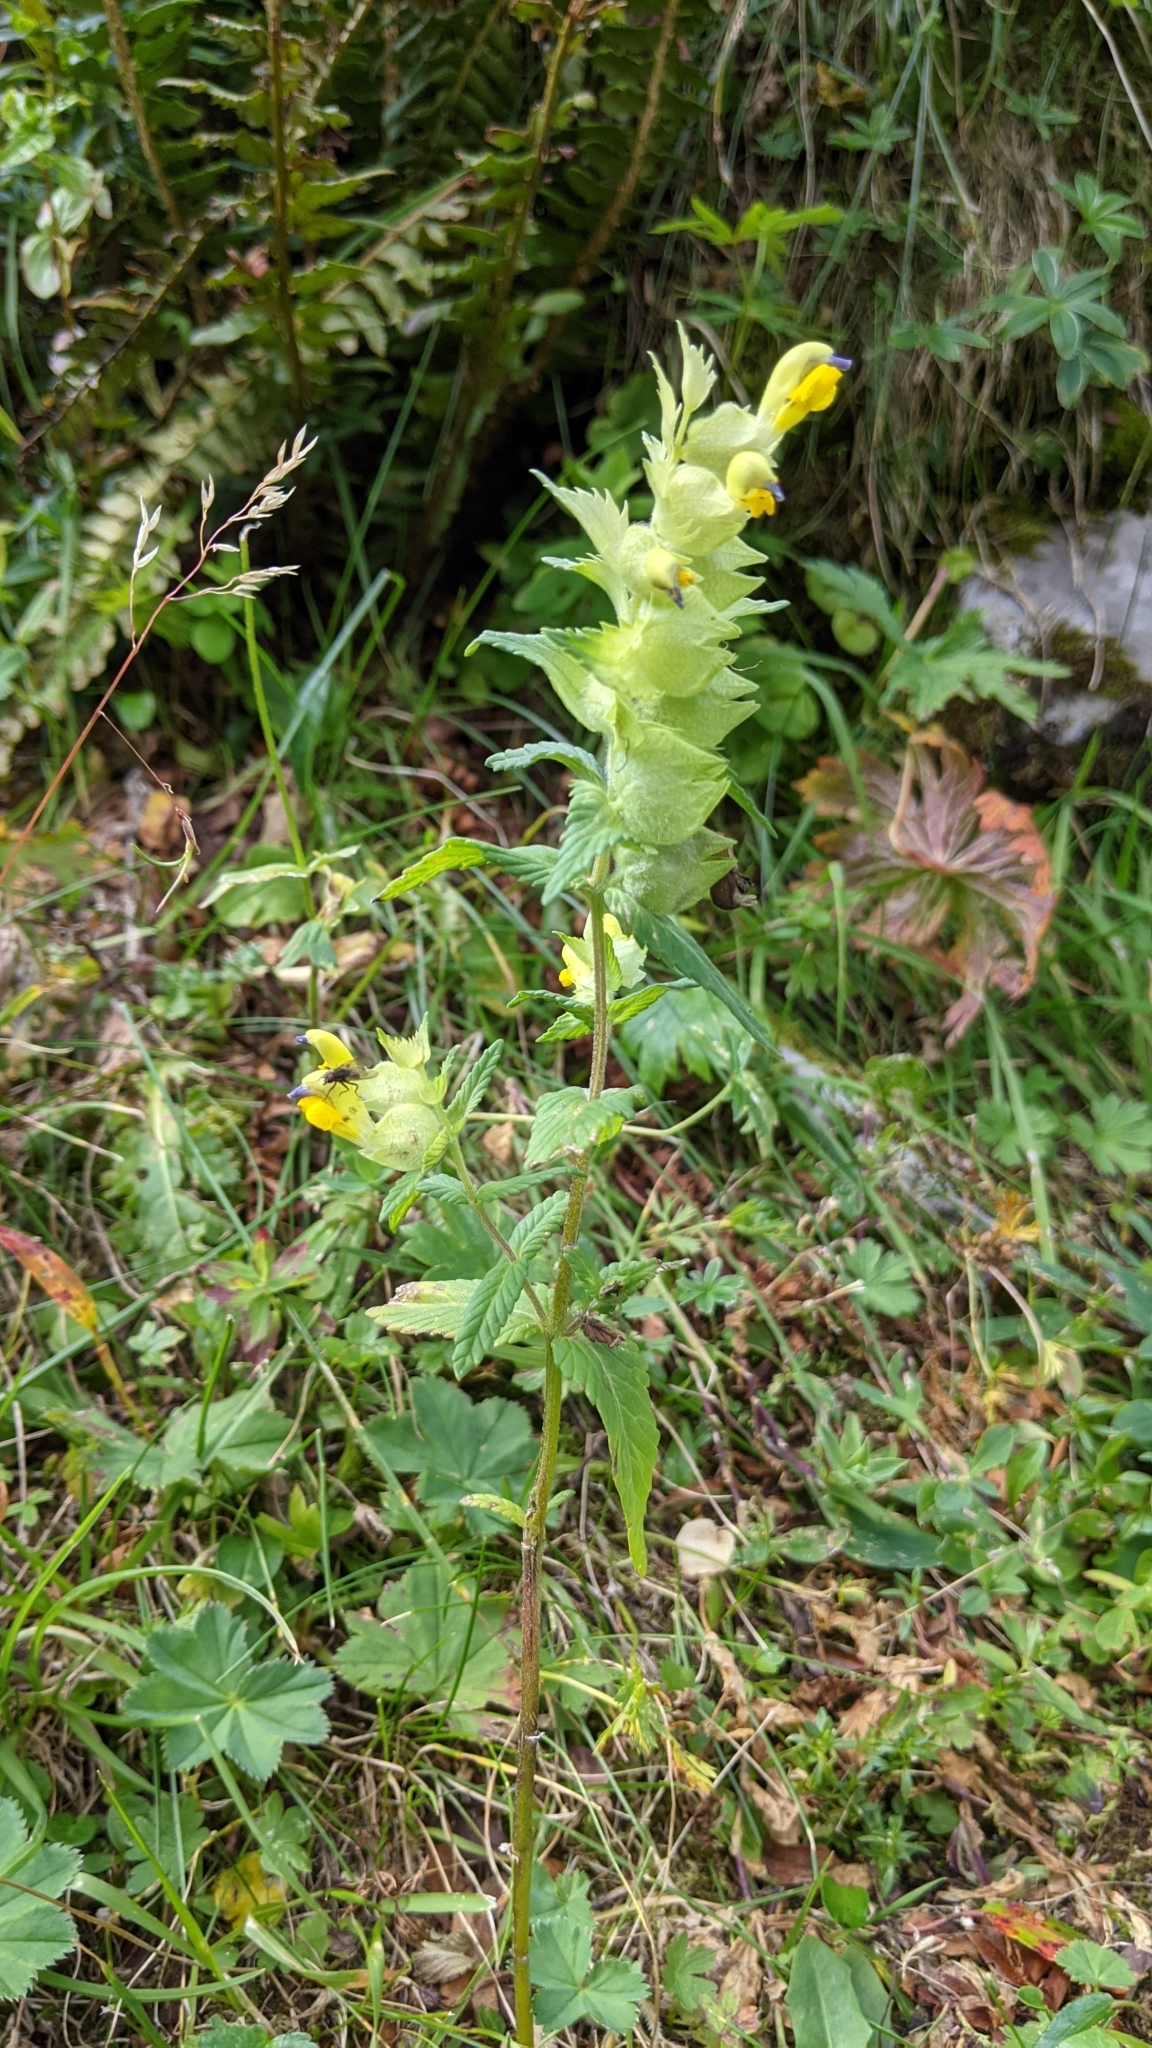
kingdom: Plantae
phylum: Tracheophyta
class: Magnoliopsida
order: Lamiales
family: Orobanchaceae
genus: Rhinanthus
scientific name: Rhinanthus alectorolophus
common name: Greater yellow-rattle
